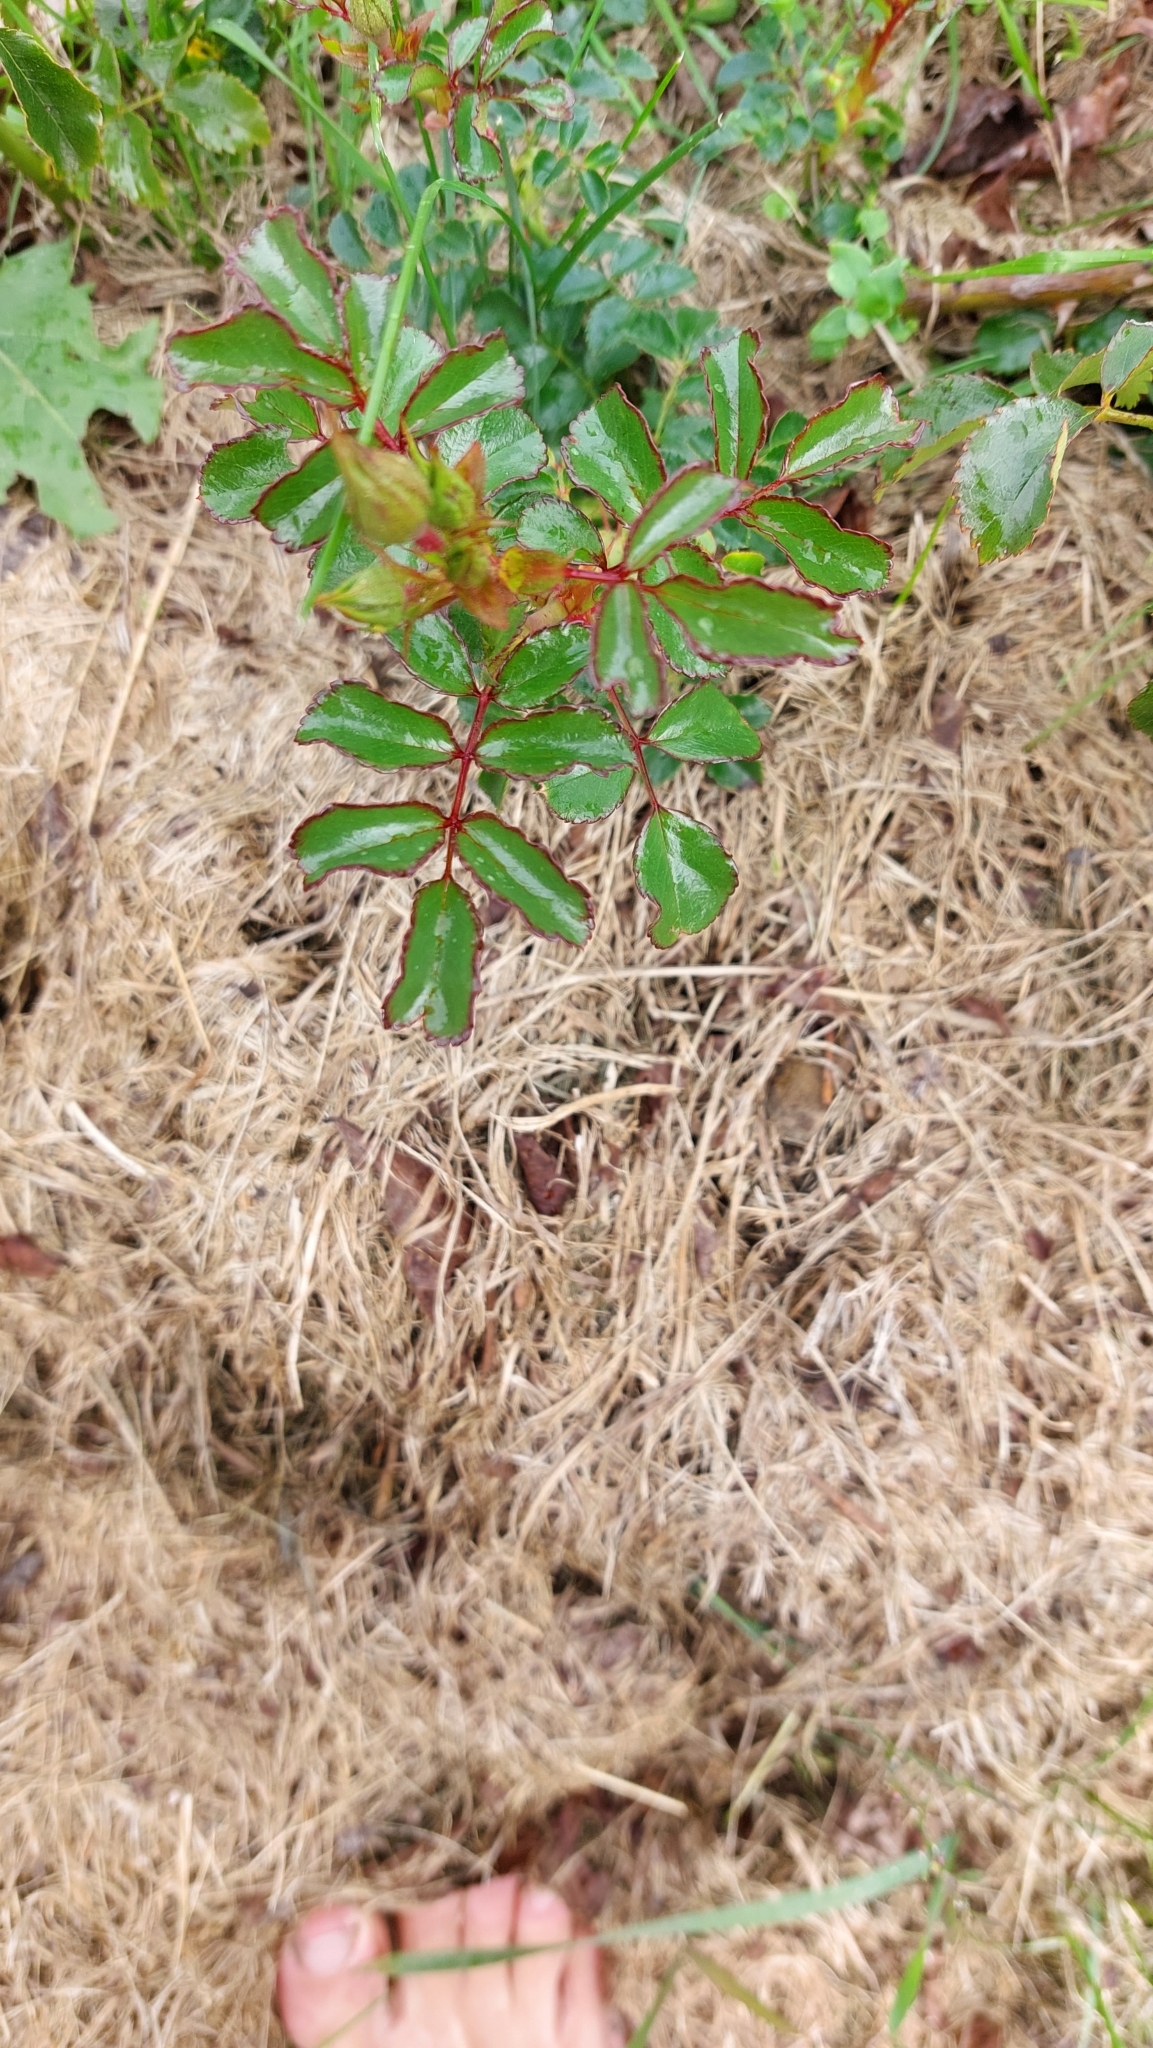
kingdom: Plantae
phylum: Tracheophyta
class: Magnoliopsida
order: Rosales
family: Rosaceae
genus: Rosa
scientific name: Rosa
